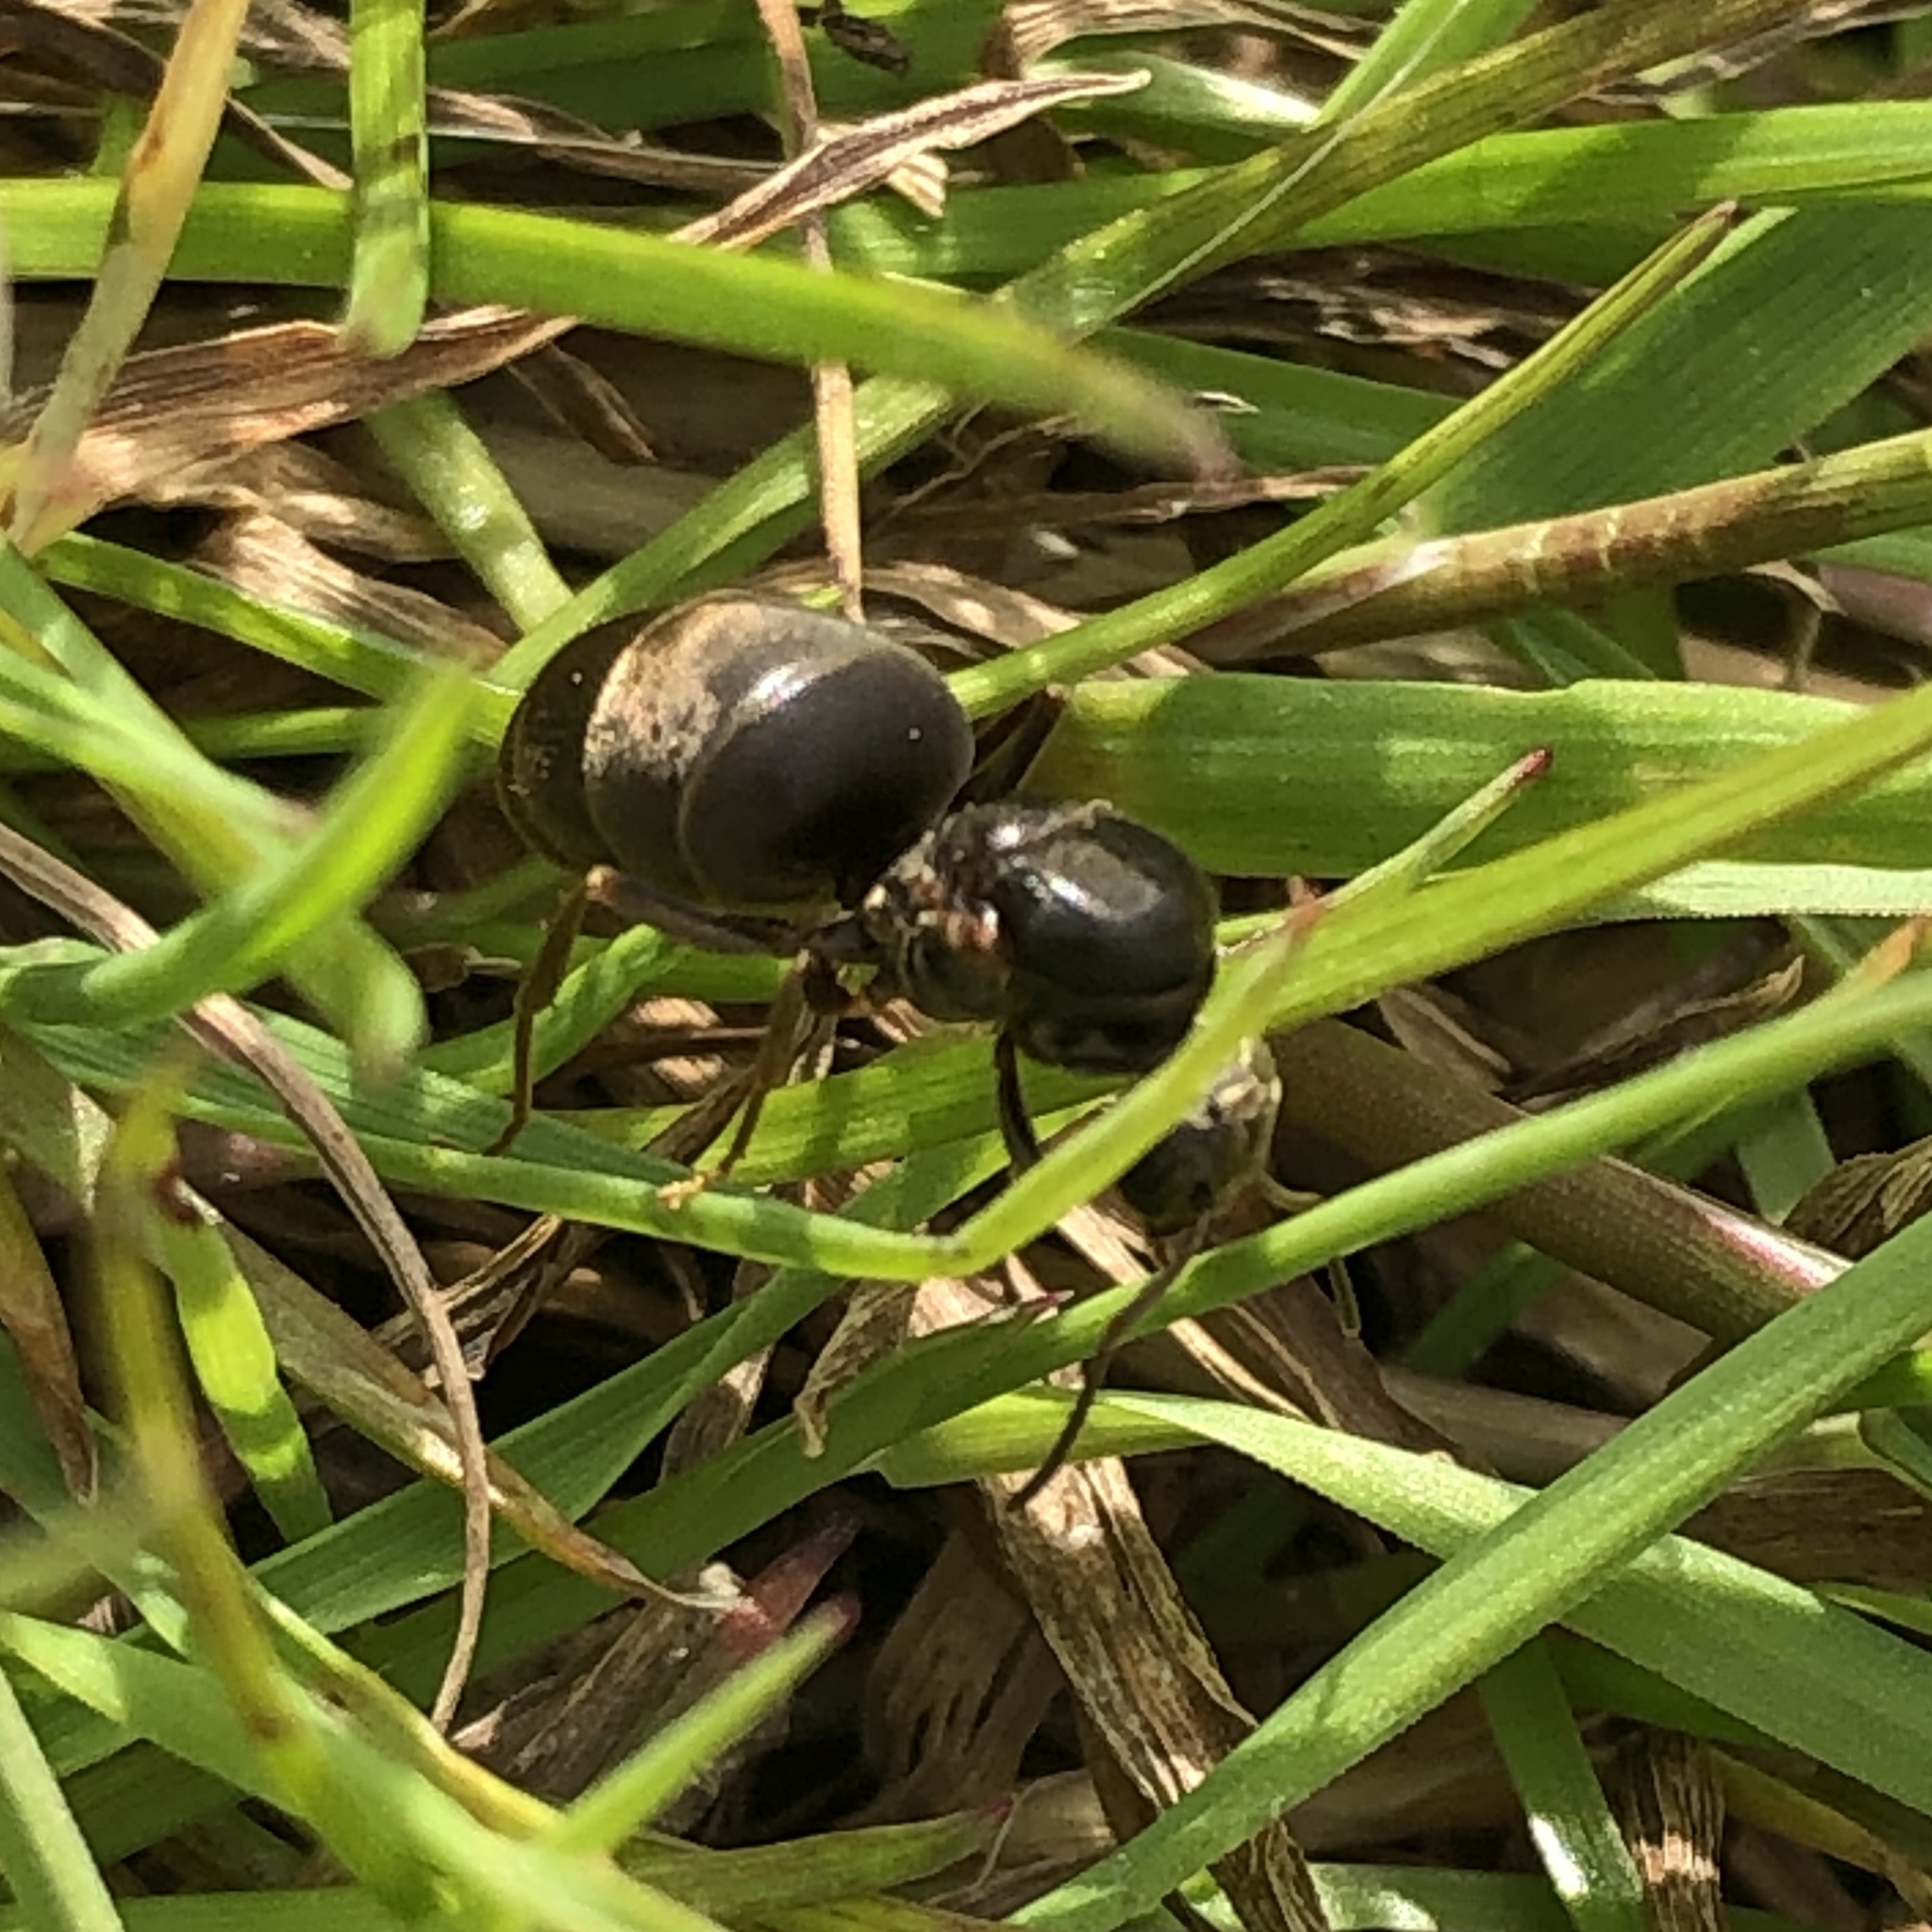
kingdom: Animalia
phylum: Arthropoda
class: Insecta
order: Hymenoptera
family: Formicidae
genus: Lasius
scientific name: Lasius niger
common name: Small black ant
